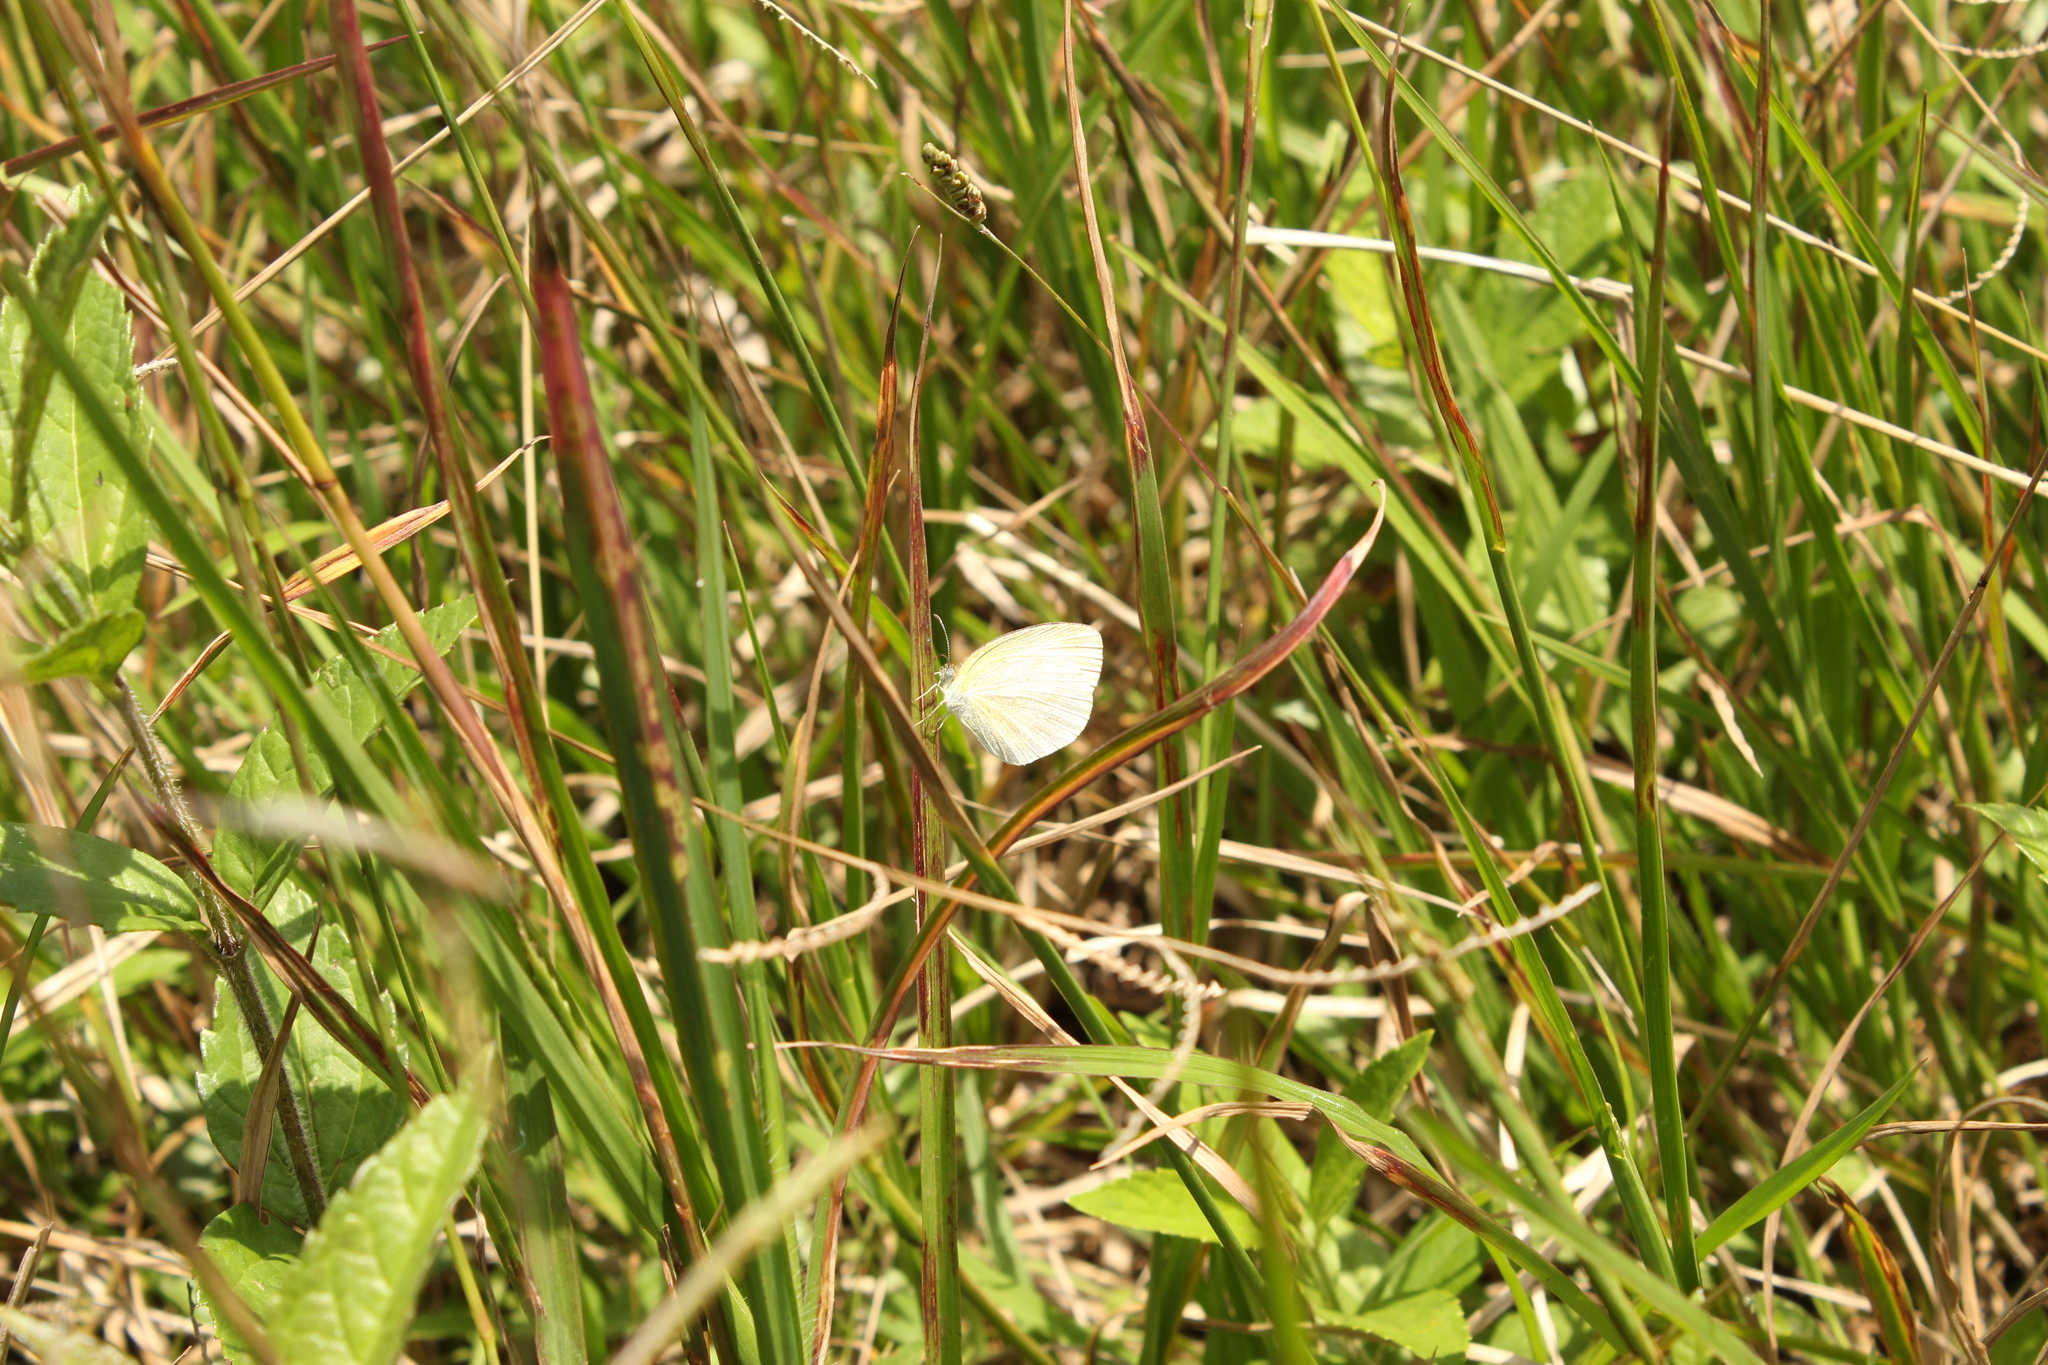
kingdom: Animalia
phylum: Arthropoda
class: Insecta
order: Lepidoptera
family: Pieridae
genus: Eurema
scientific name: Eurema daira
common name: Barred sulphur
